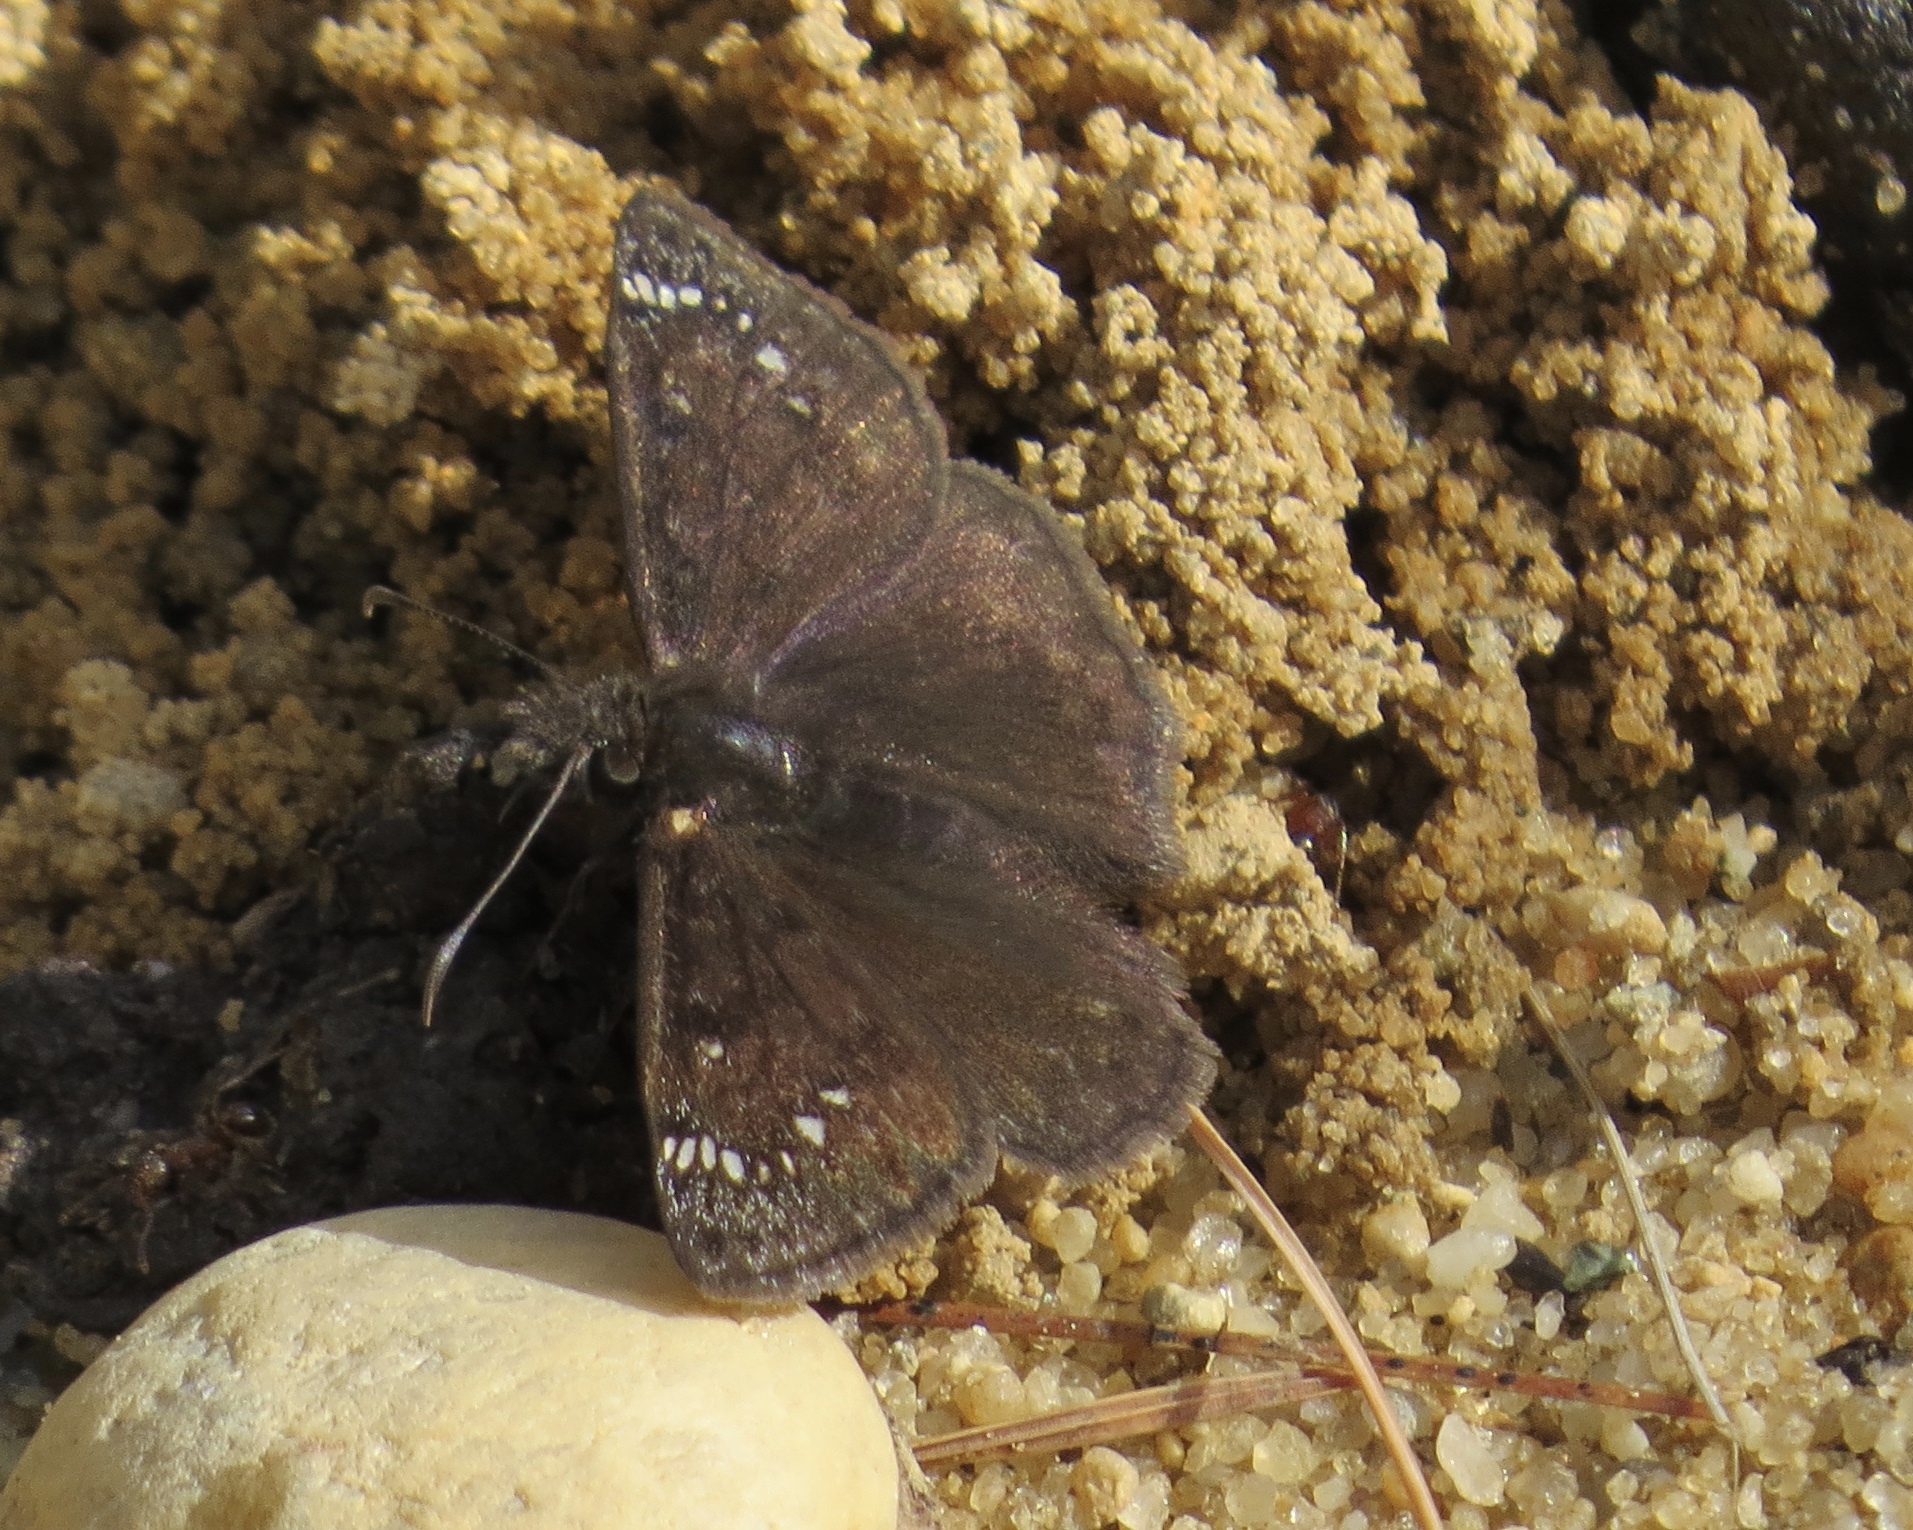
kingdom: Animalia
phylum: Arthropoda
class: Insecta
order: Lepidoptera
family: Hesperiidae
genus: Erynnis
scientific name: Erynnis juvenalis
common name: Juvenal's duskywing
